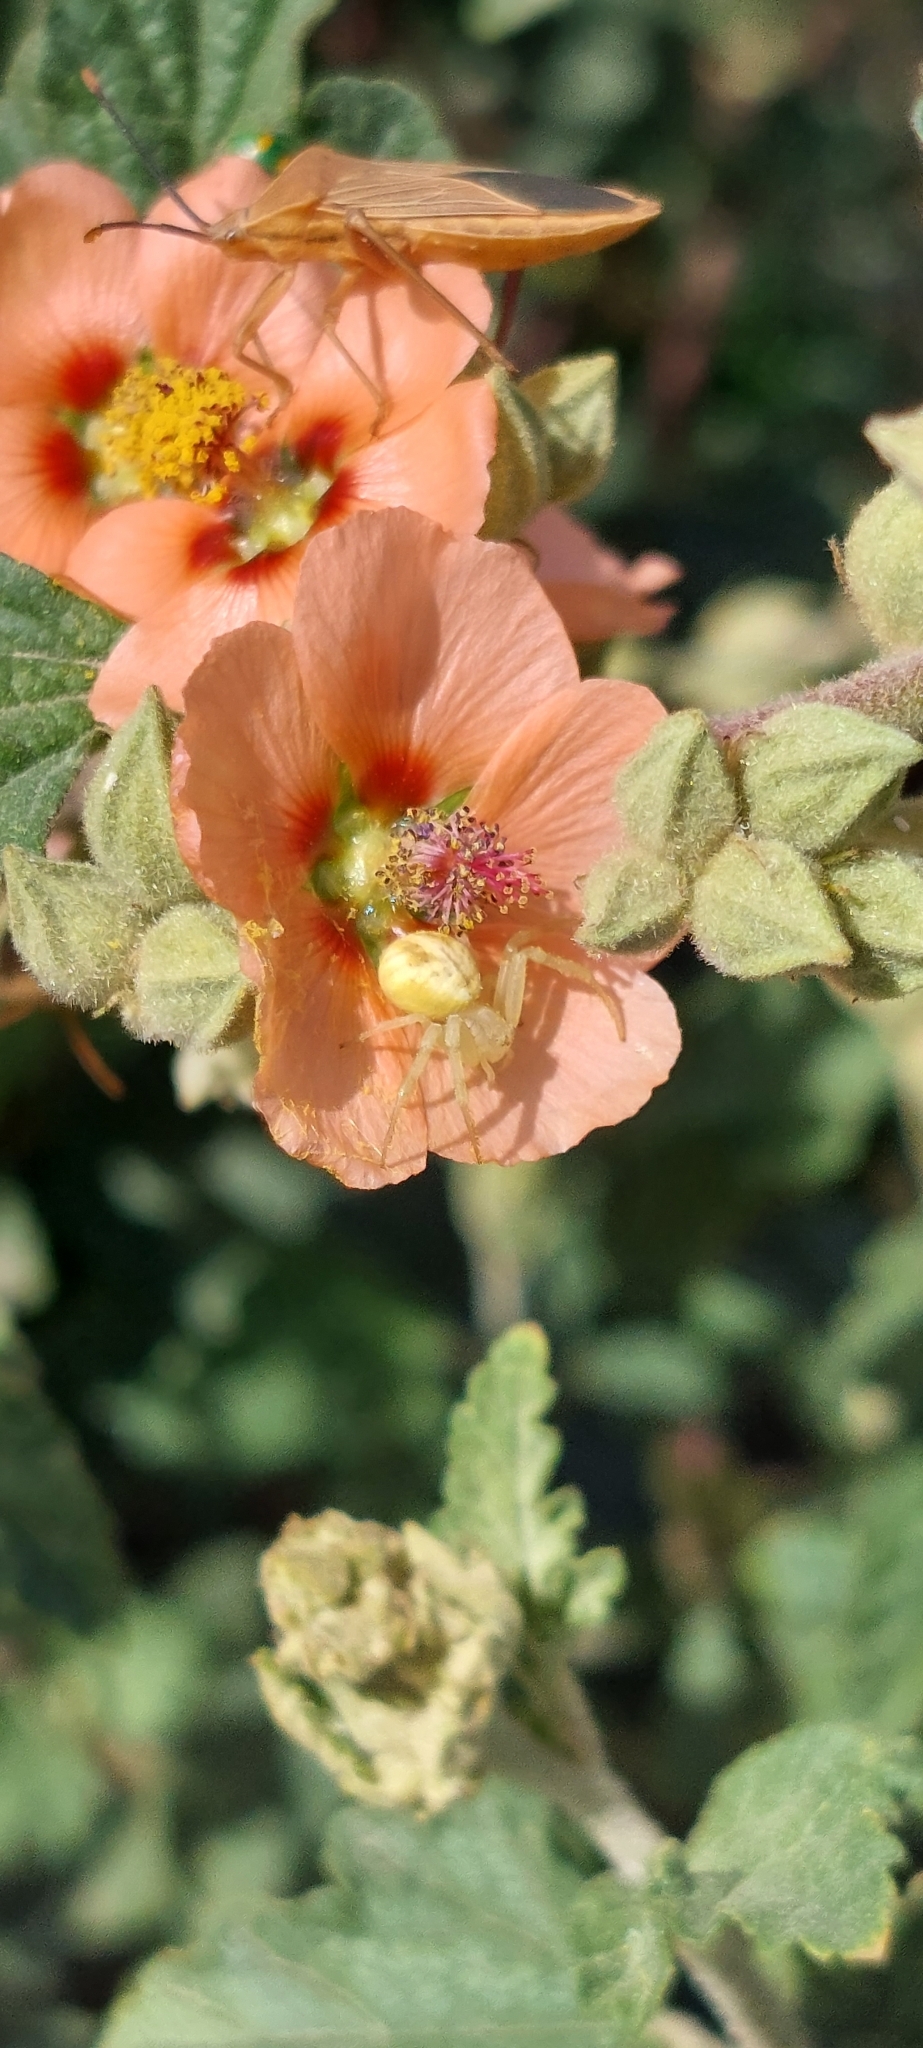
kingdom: Plantae
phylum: Tracheophyta
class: Magnoliopsida
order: Malvales
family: Malvaceae
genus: Sphaeralcea
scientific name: Sphaeralcea bonariensis
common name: Latin globemallow
